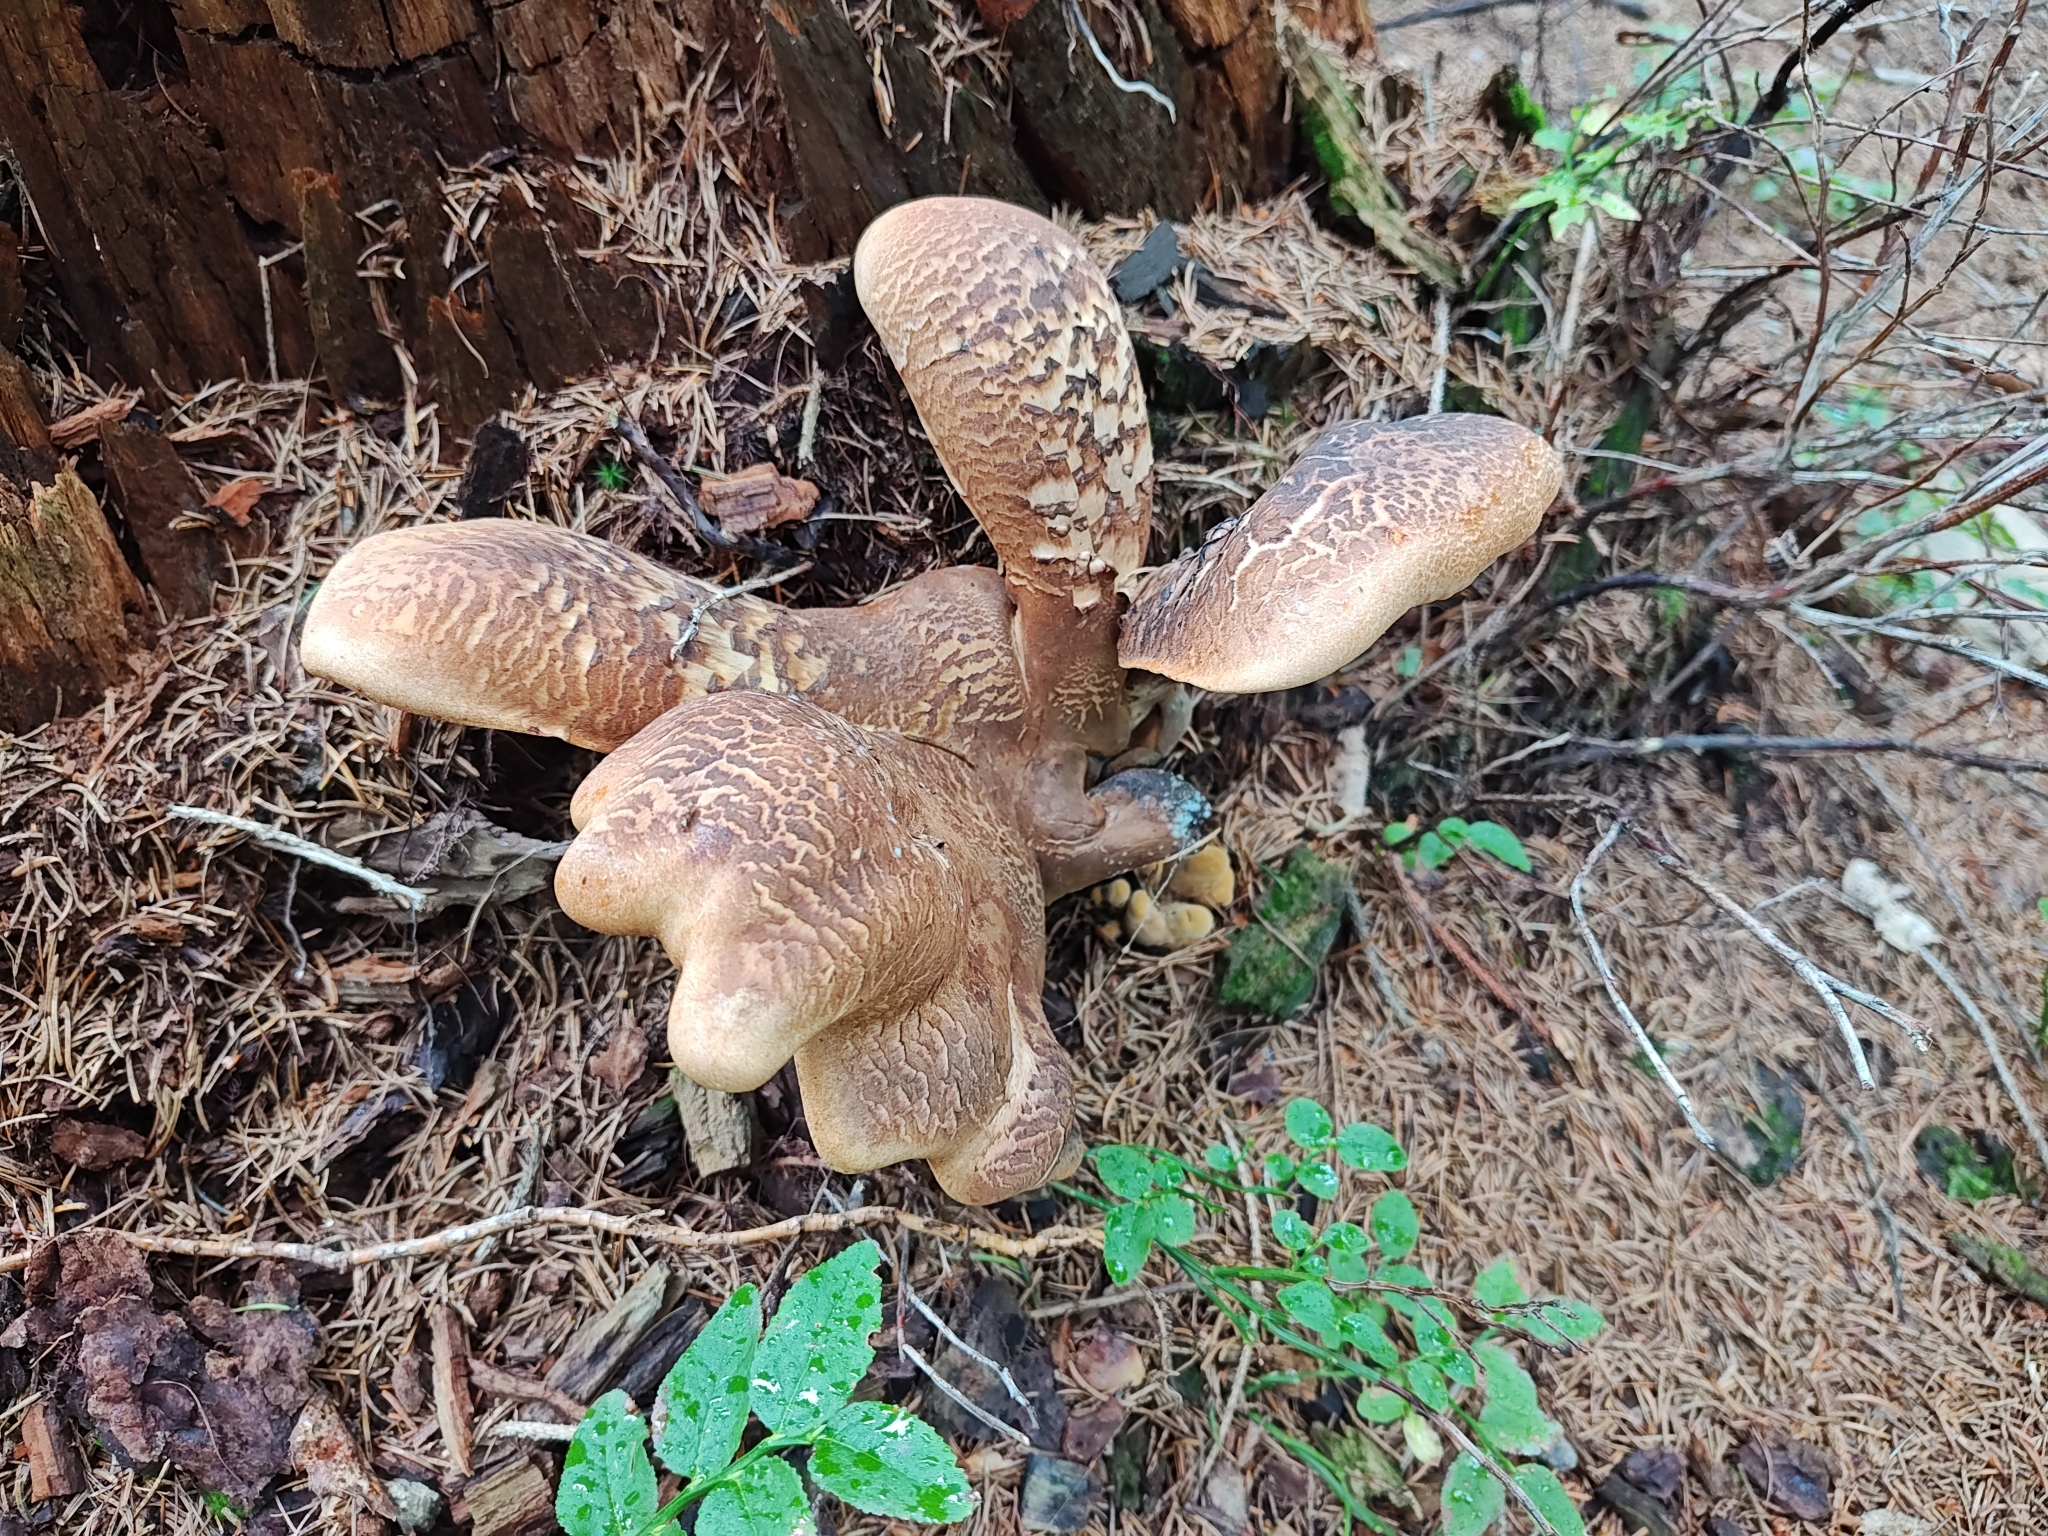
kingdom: Fungi
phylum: Basidiomycota
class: Agaricomycetes
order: Boletales
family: Tapinellaceae
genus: Tapinella
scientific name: Tapinella atrotomentosa
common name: Velvet rollrim
